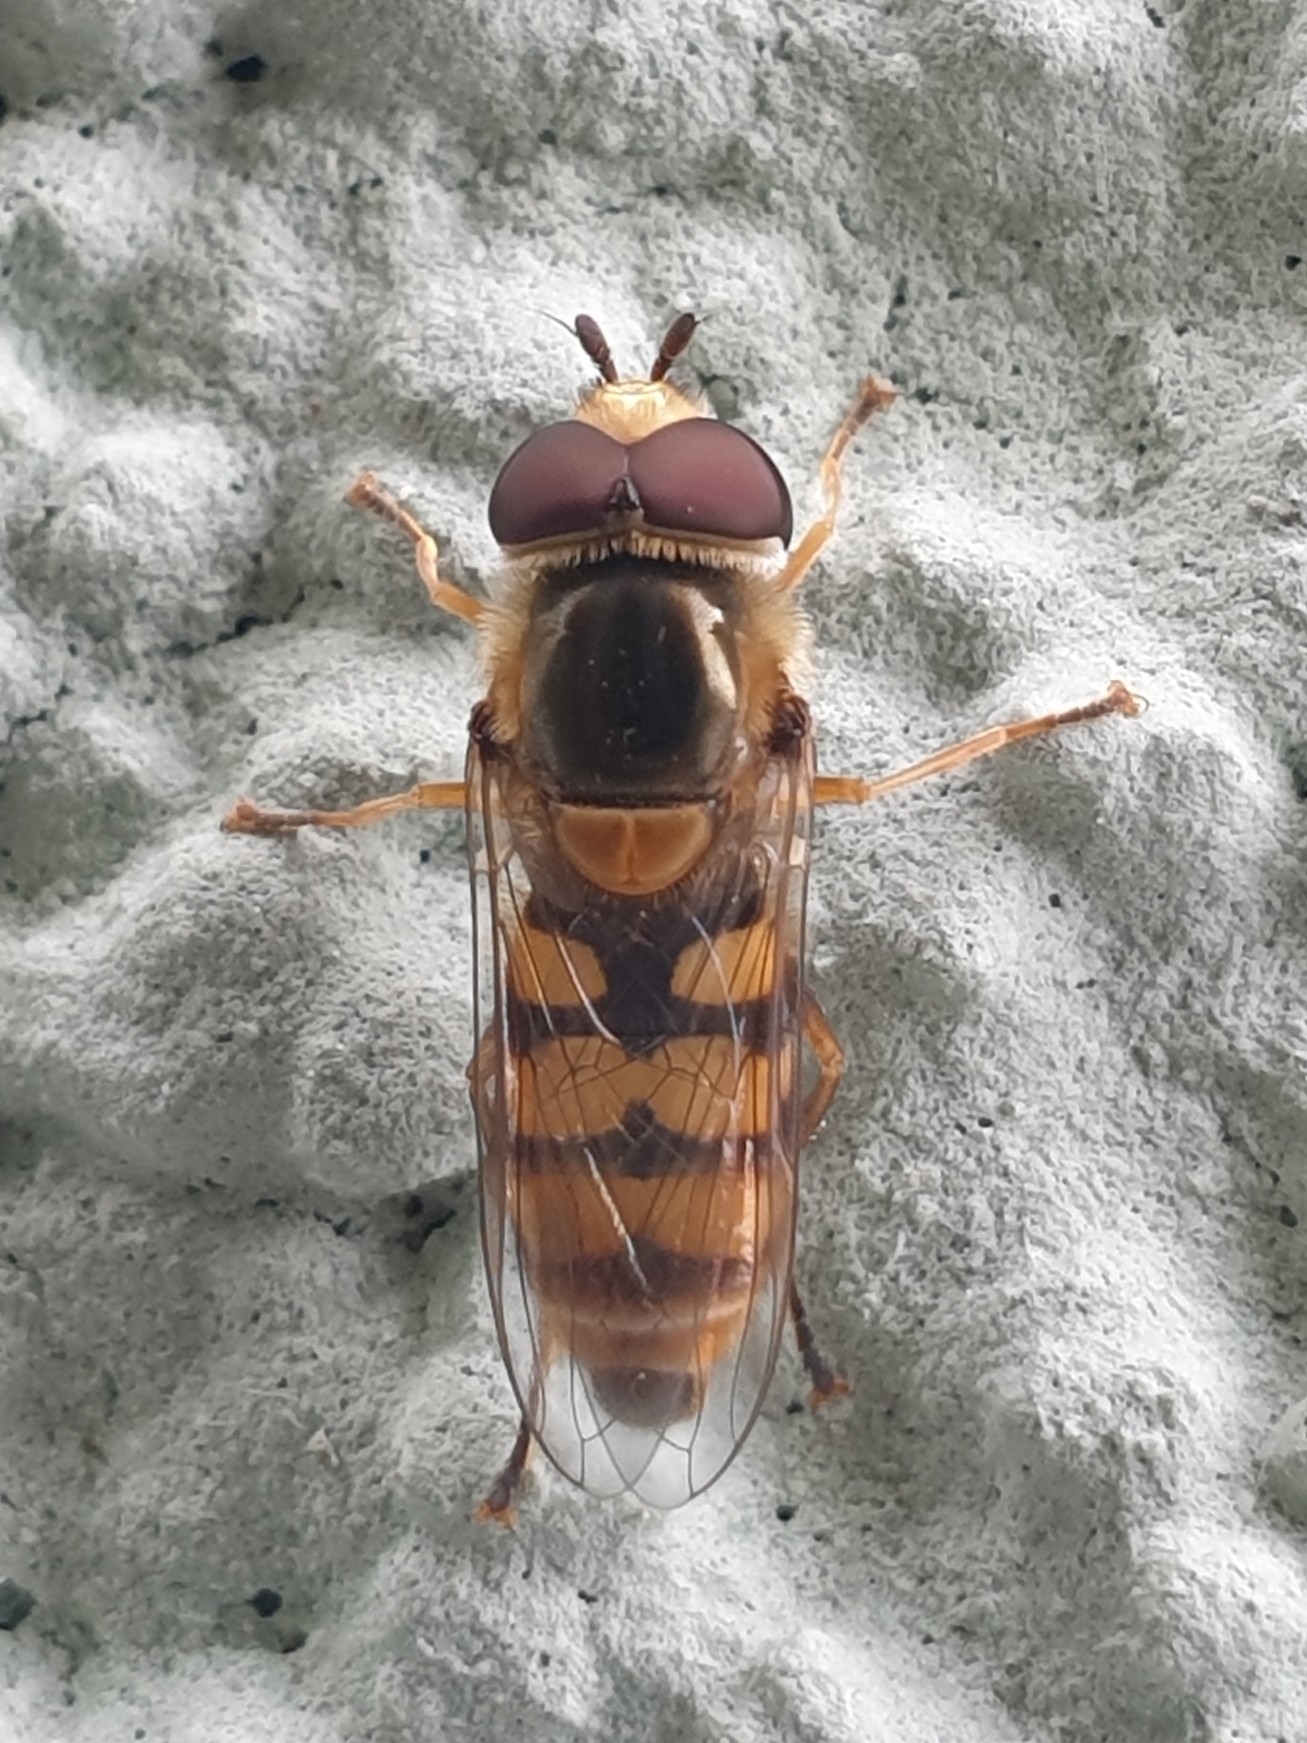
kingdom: Animalia
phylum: Arthropoda
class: Insecta
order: Diptera
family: Syrphidae
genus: Eupeodes
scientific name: Eupeodes corollae
